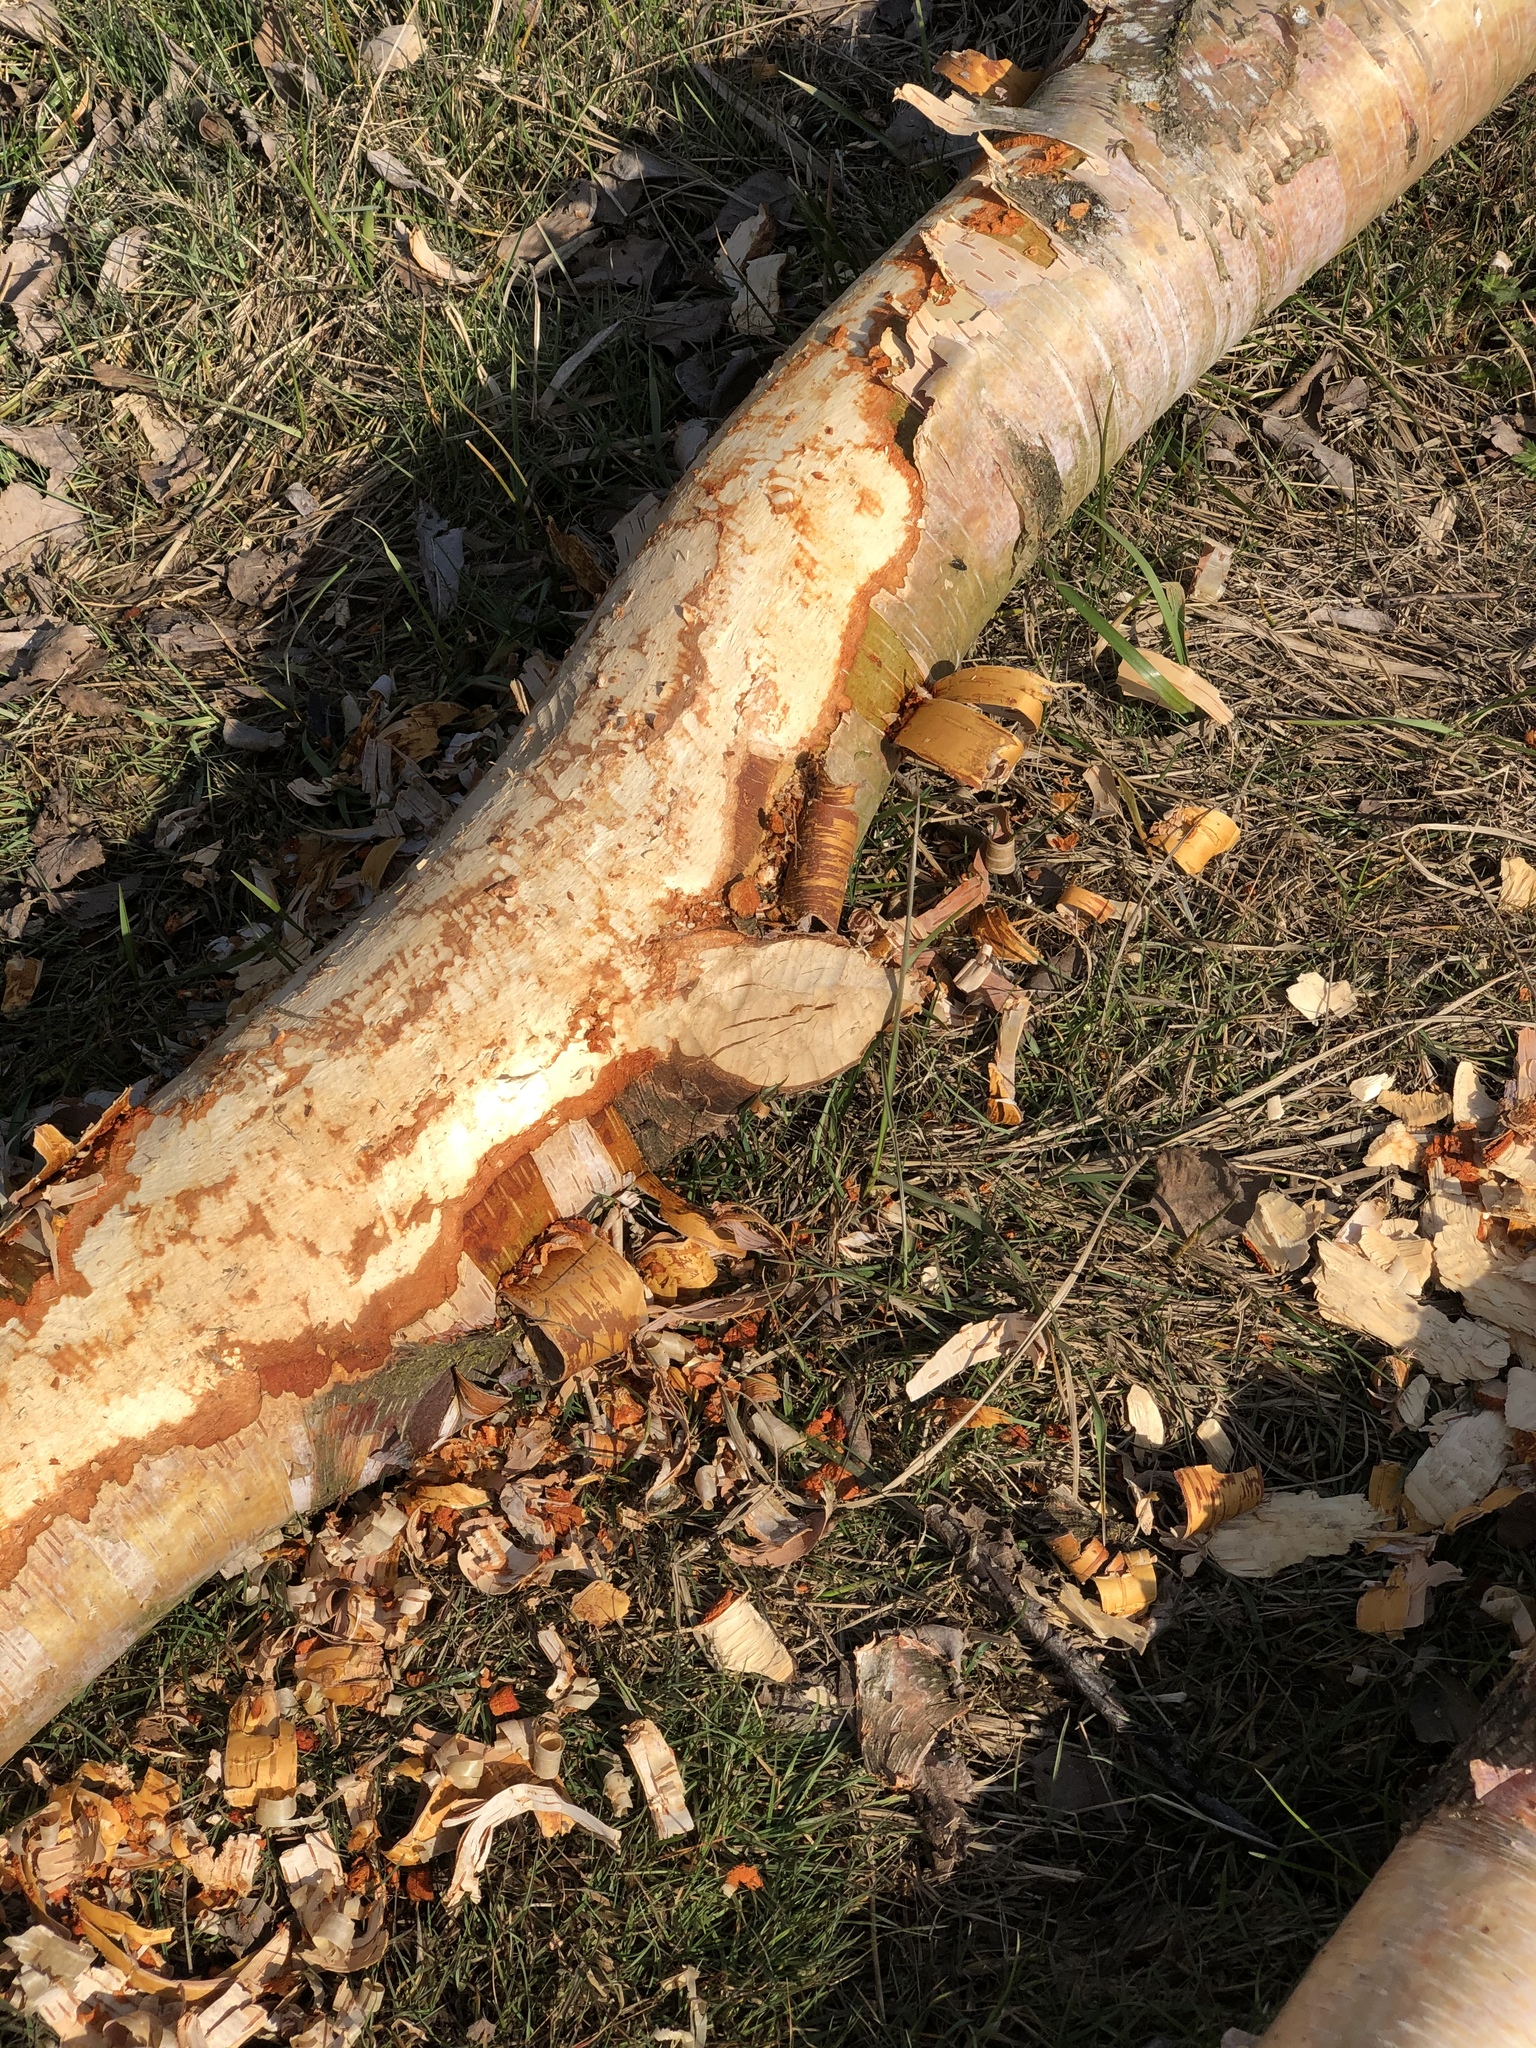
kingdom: Animalia
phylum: Chordata
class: Mammalia
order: Rodentia
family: Castoridae
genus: Castor
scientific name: Castor canadensis
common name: American beaver
